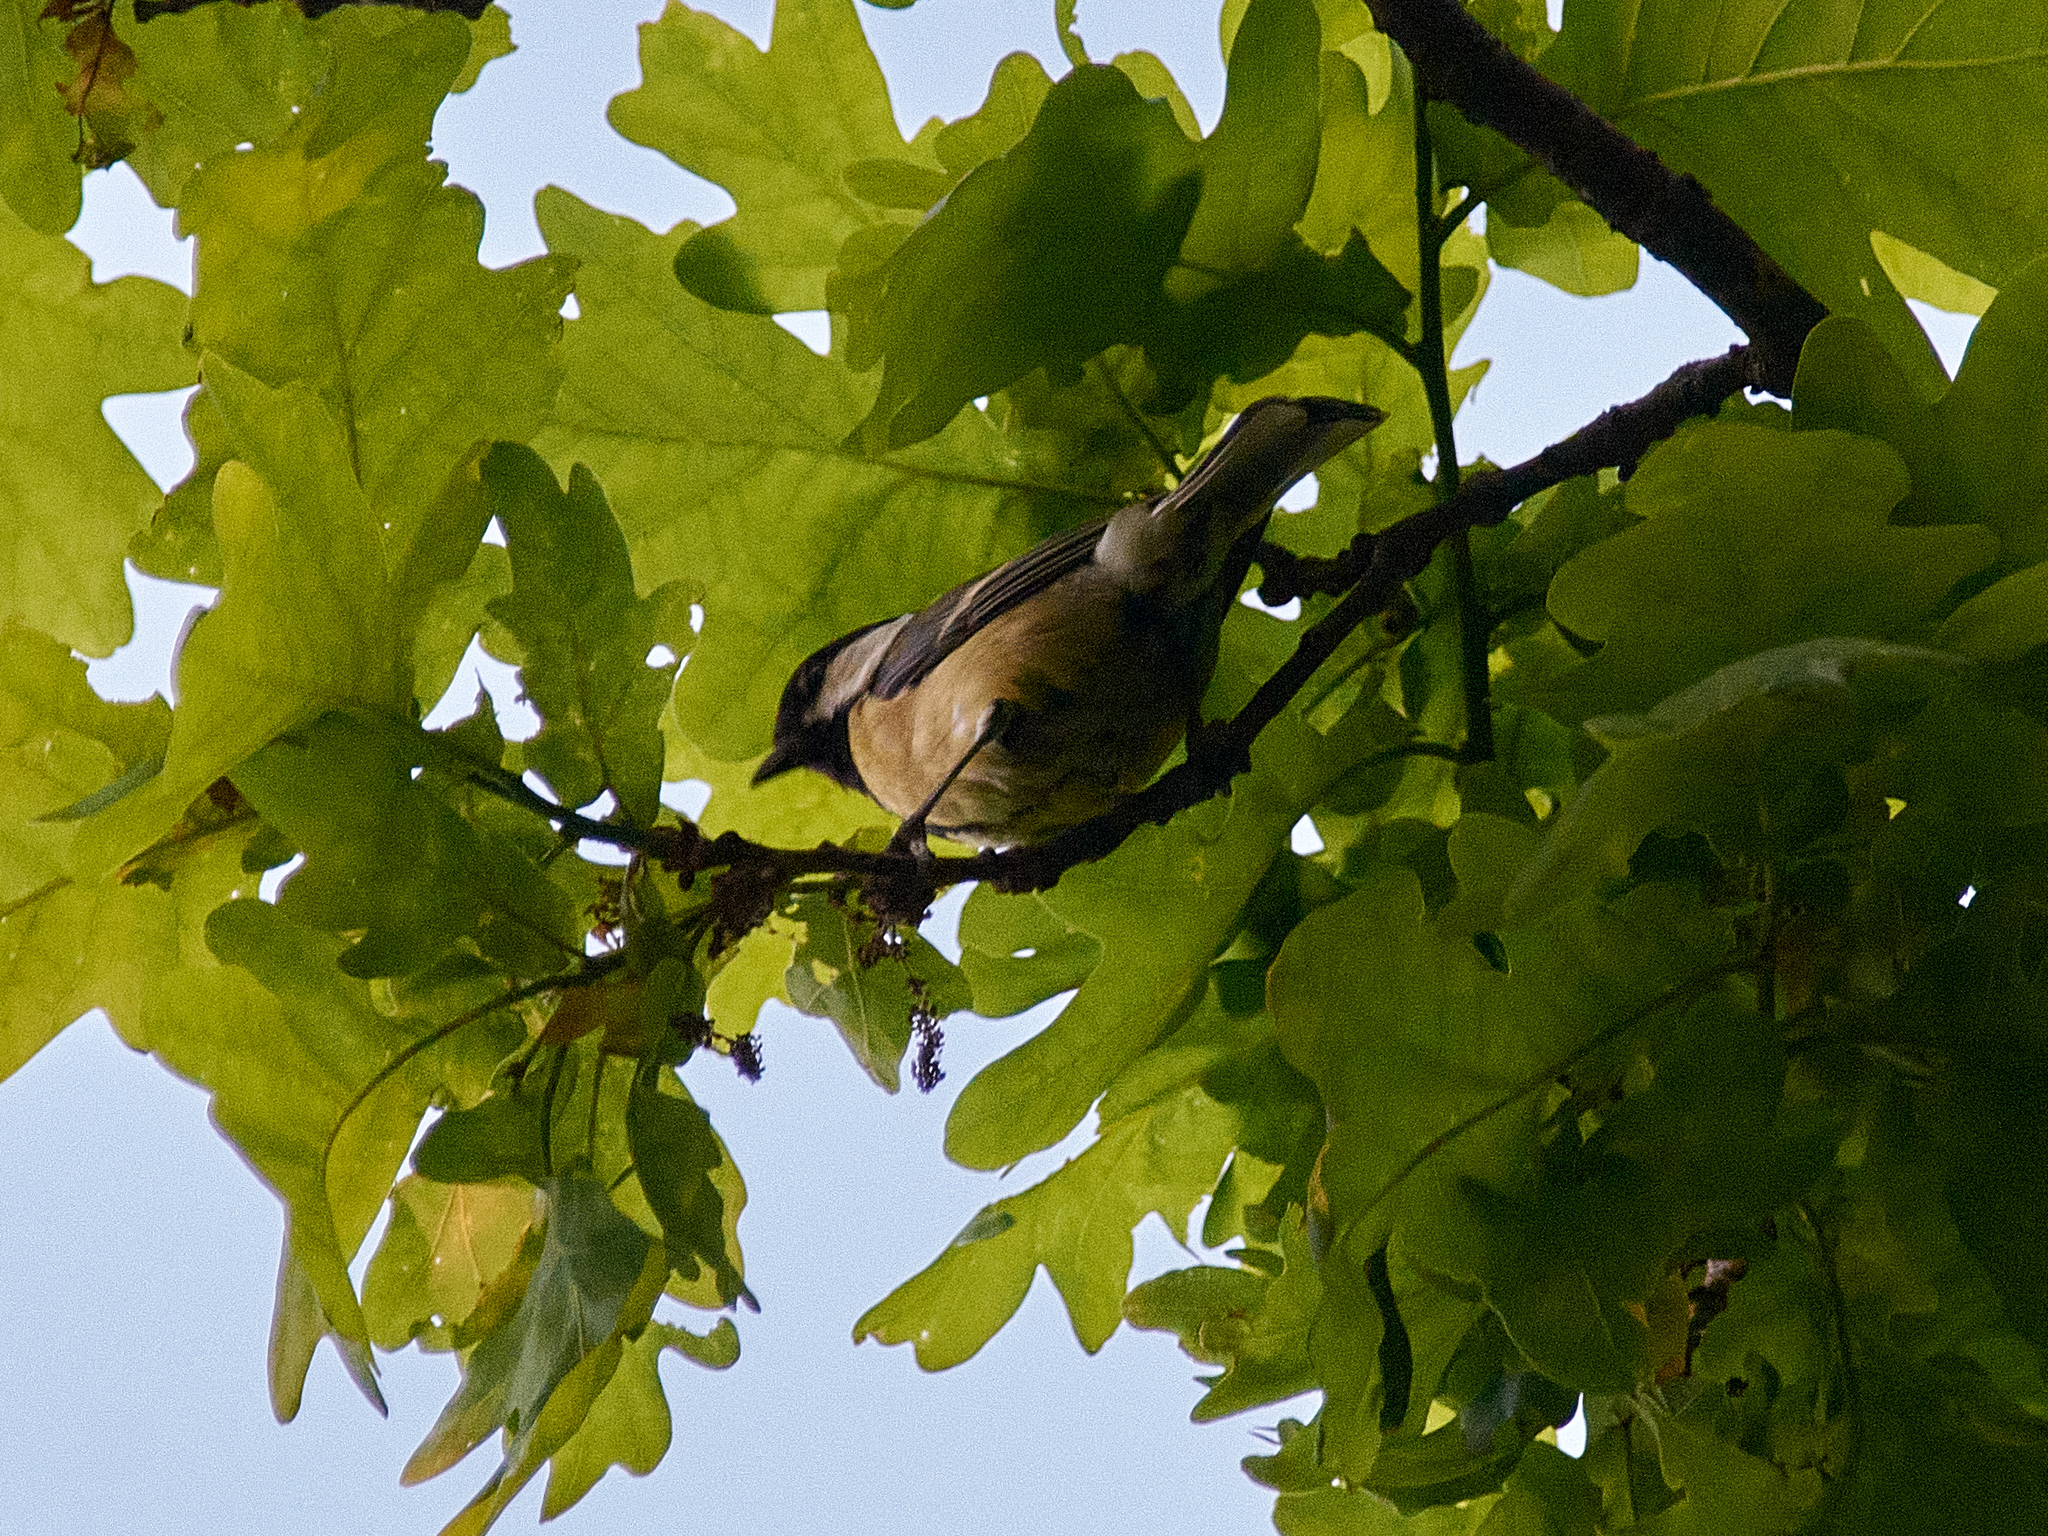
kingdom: Animalia
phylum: Chordata
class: Aves
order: Passeriformes
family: Paridae
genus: Parus
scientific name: Parus major
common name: Great tit
